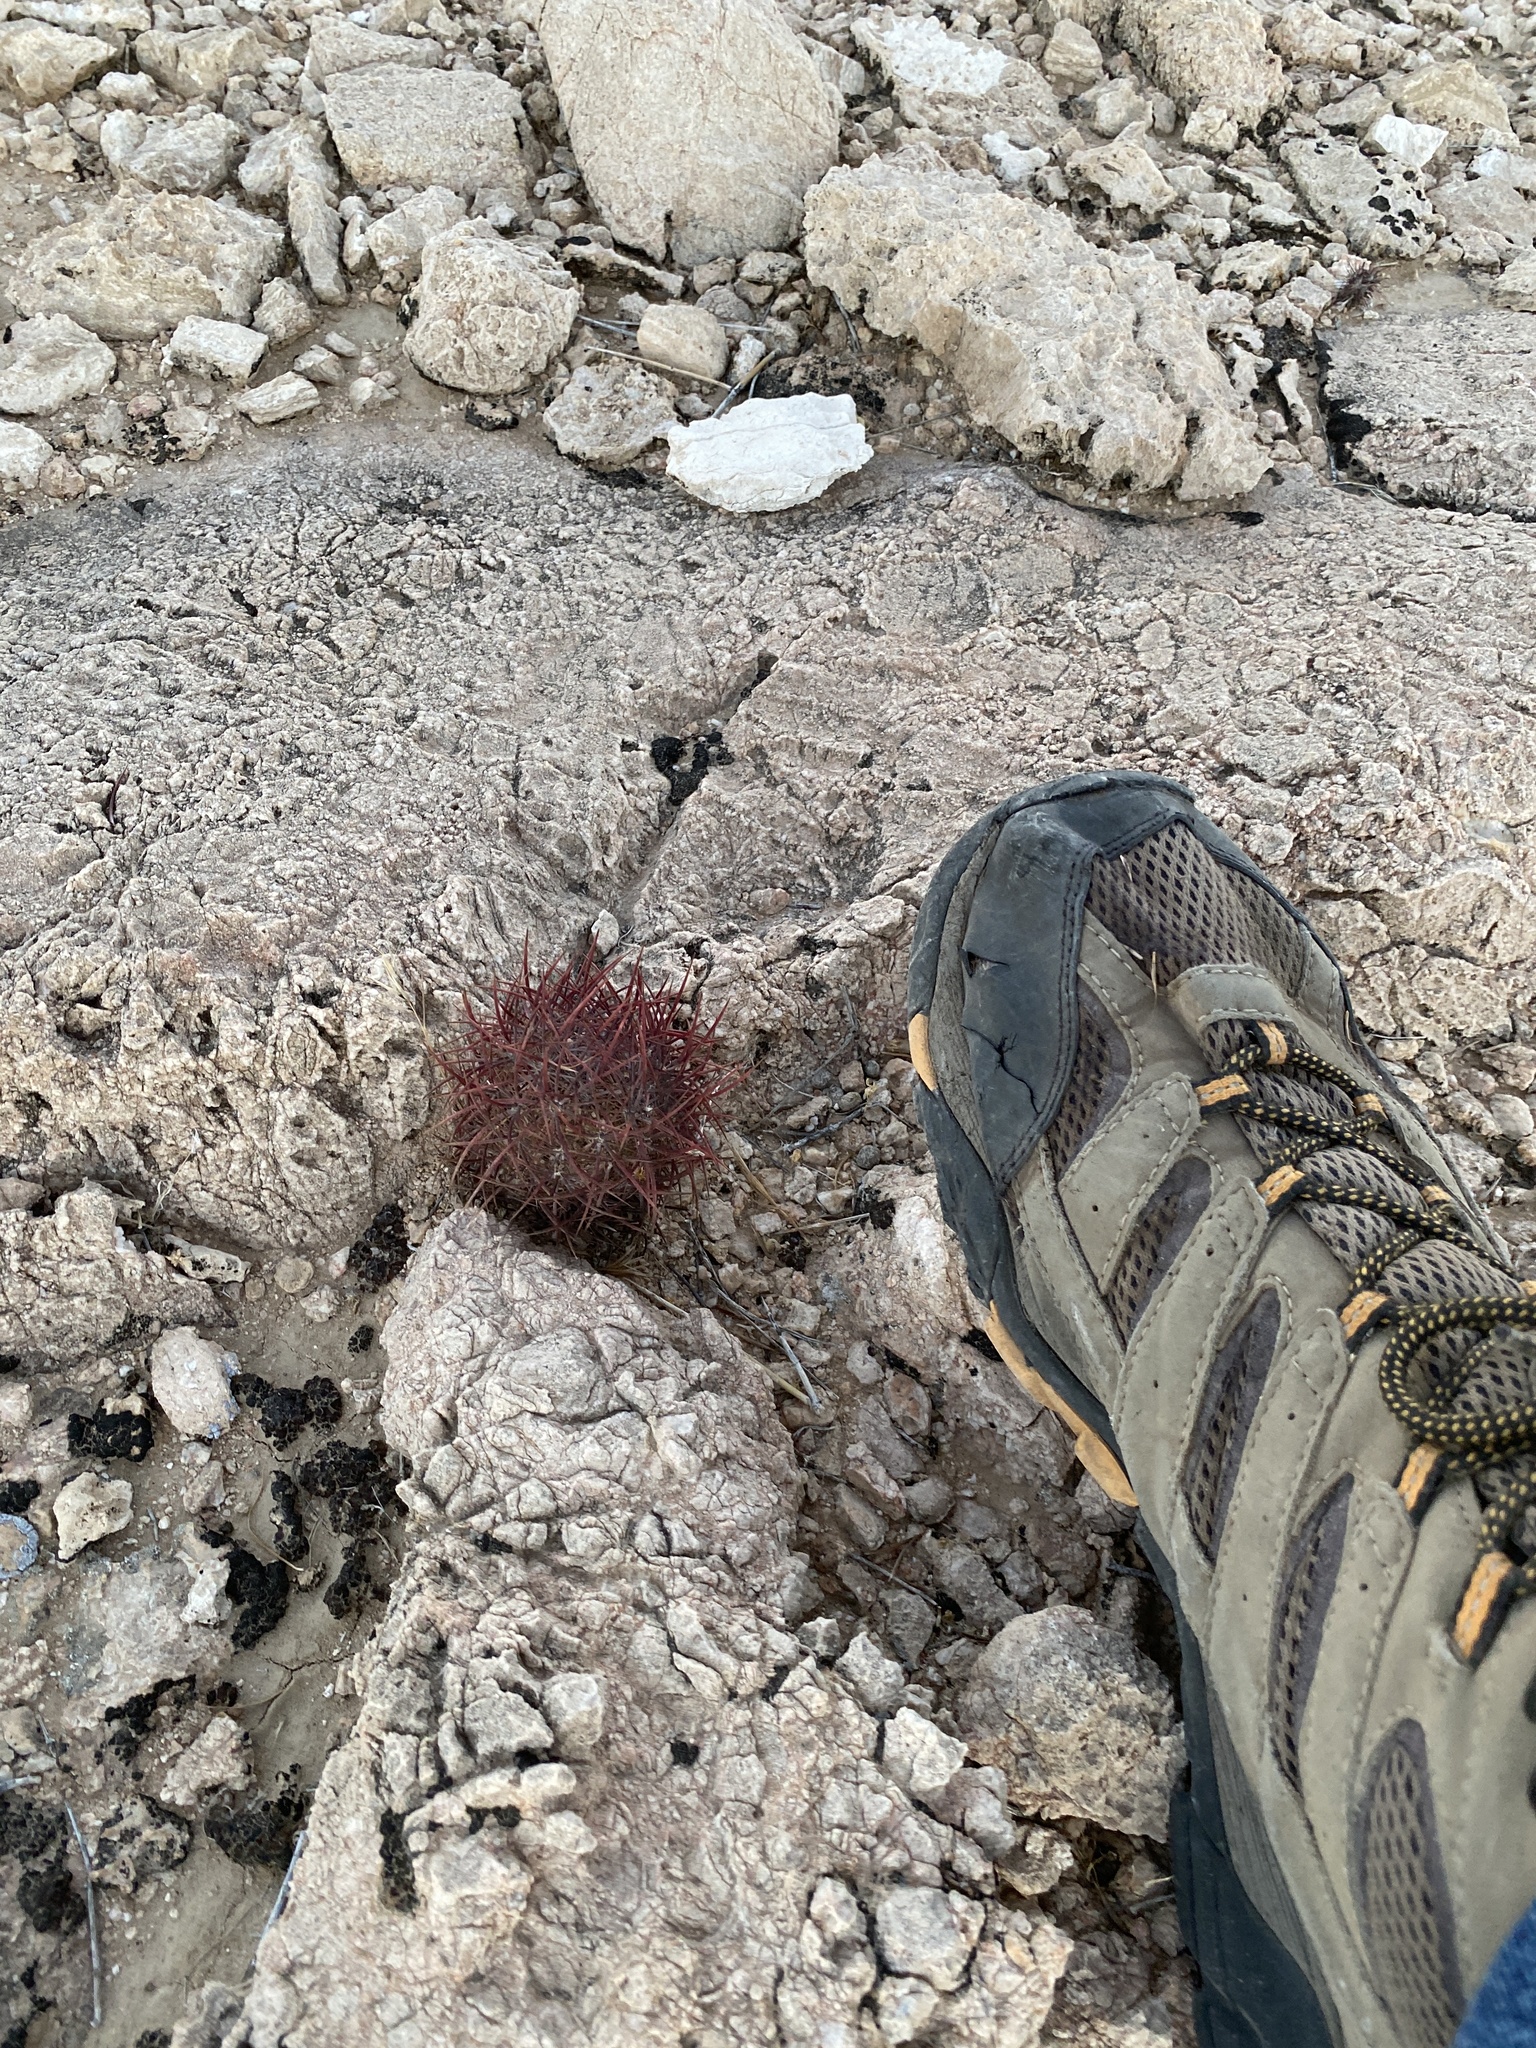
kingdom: Plantae
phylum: Tracheophyta
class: Magnoliopsida
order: Caryophyllales
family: Cactaceae
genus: Sclerocactus
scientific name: Sclerocactus johnsonii
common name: Eight-spine fishhook cactus
